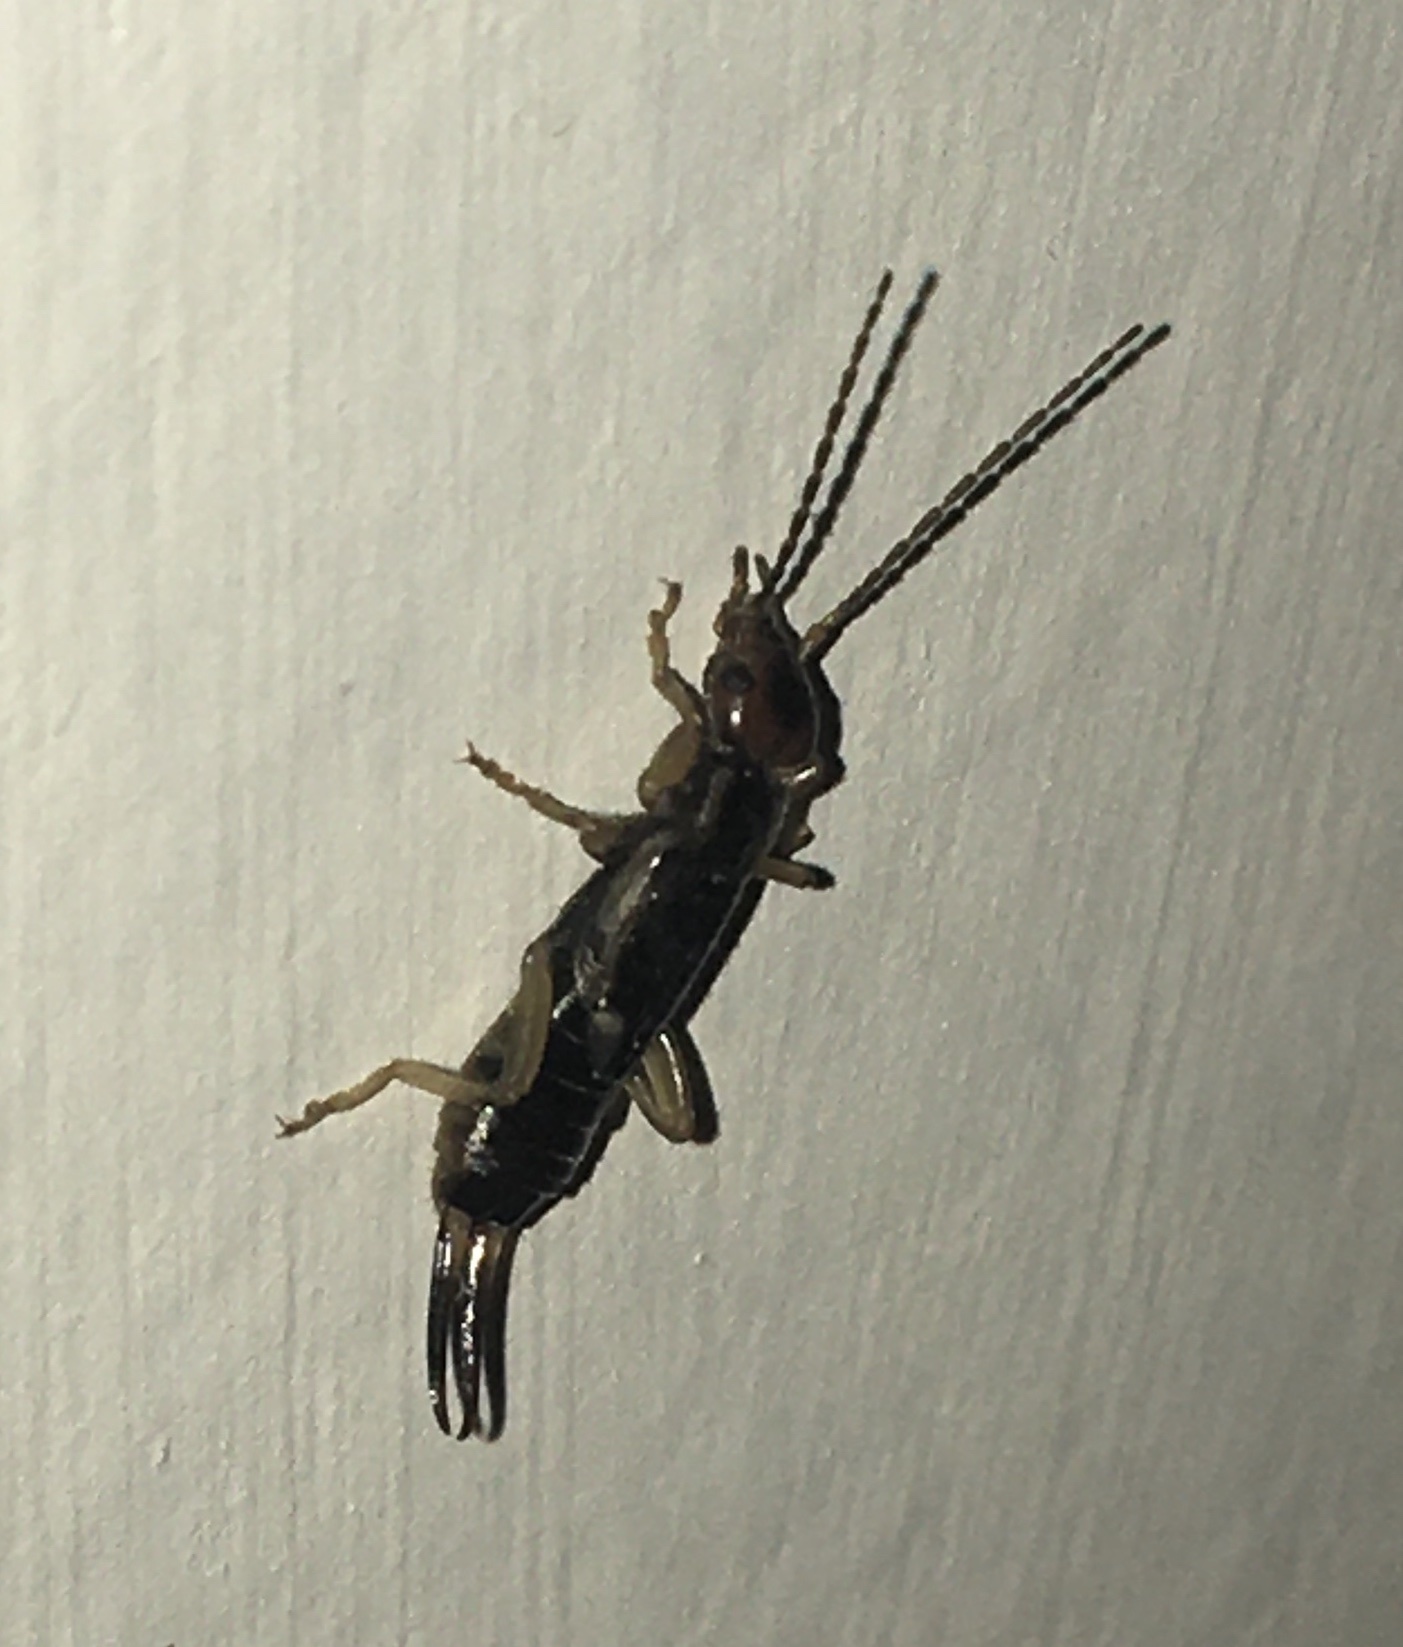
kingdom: Animalia
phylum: Arthropoda
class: Insecta
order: Dermaptera
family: Forficulidae
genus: Forficula
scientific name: Forficula
